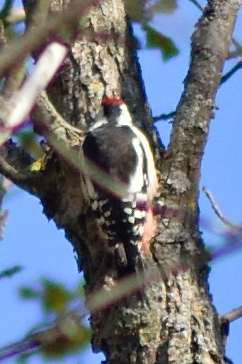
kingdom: Animalia
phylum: Chordata
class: Aves
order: Piciformes
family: Picidae
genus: Dendrocoptes
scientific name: Dendrocoptes medius
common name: Middle spotted woodpecker
